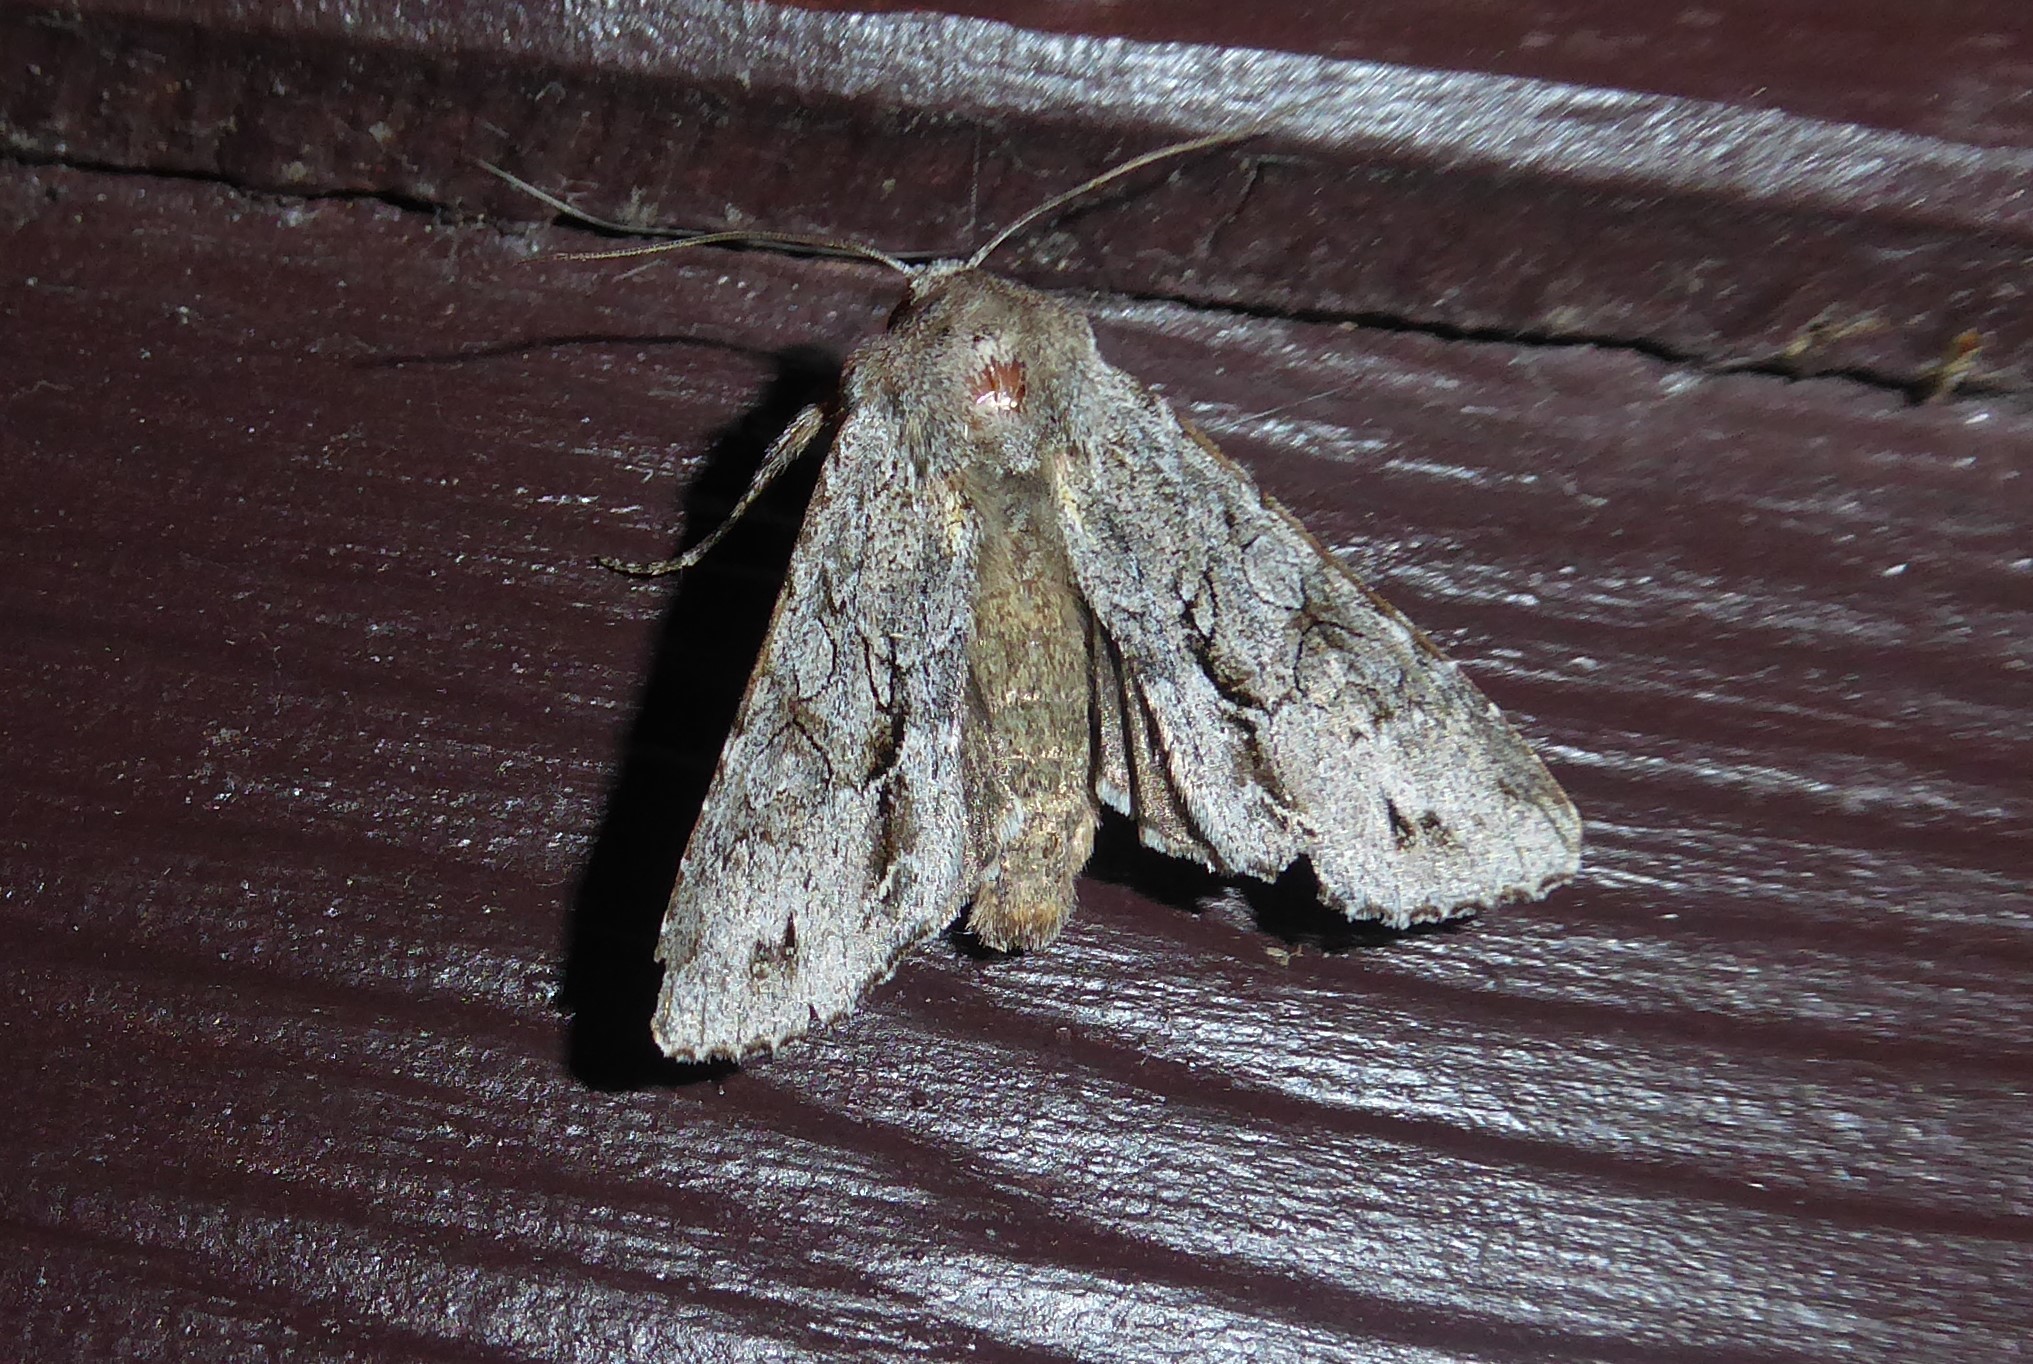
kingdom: Animalia
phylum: Arthropoda
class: Insecta
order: Lepidoptera
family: Noctuidae
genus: Ichneutica
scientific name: Ichneutica
